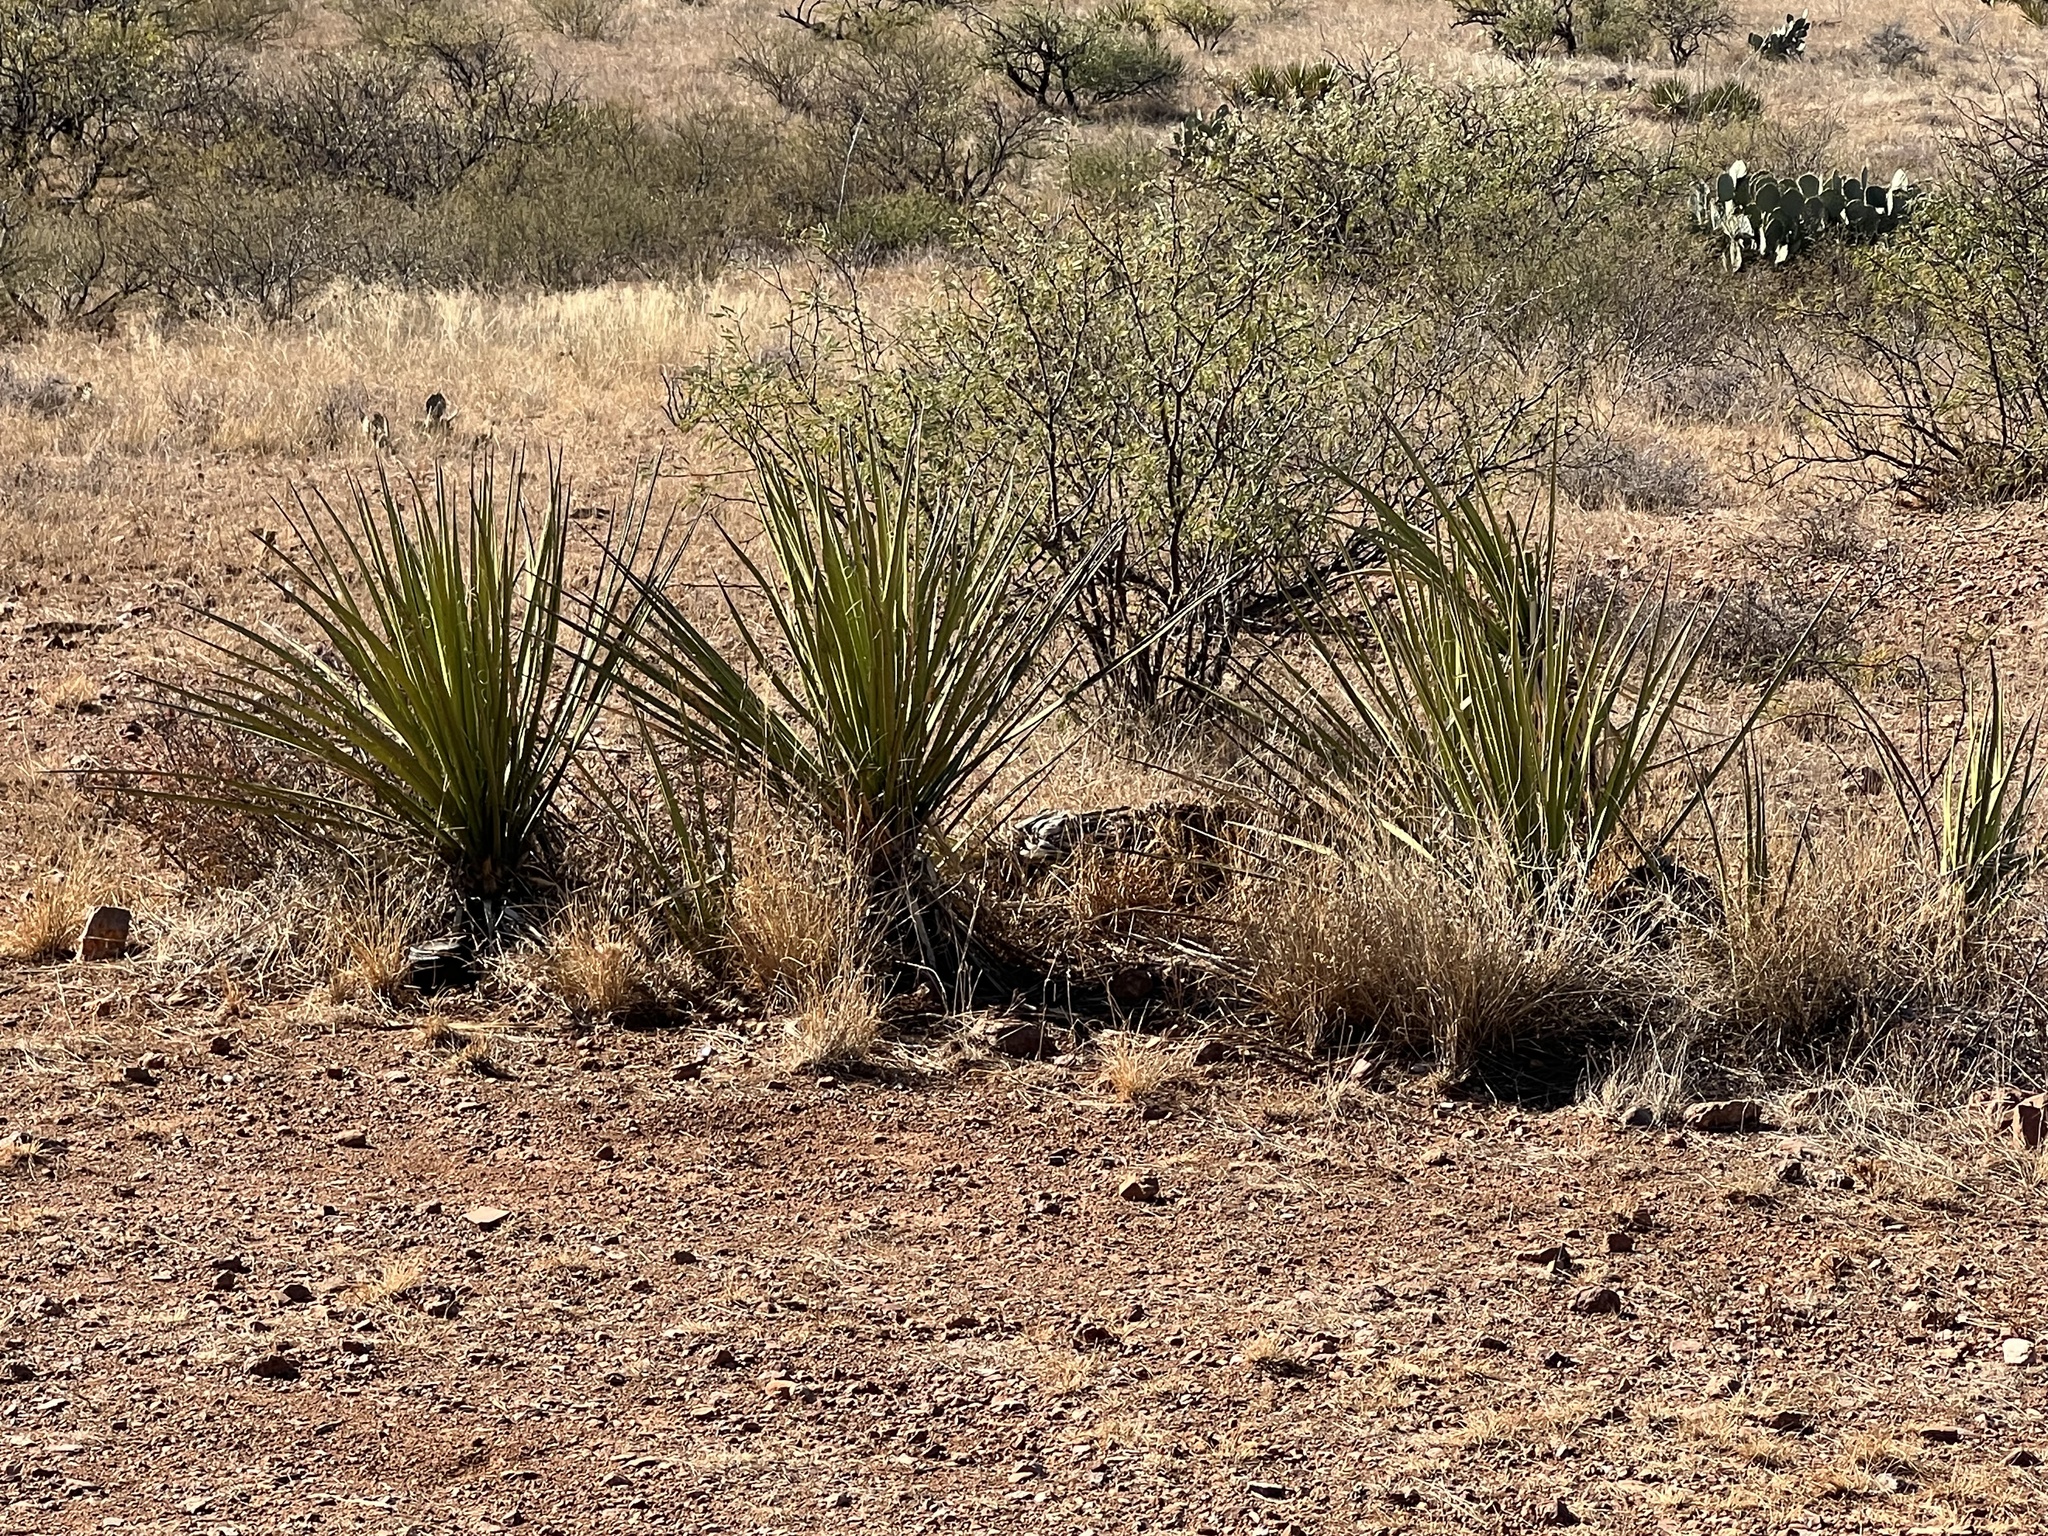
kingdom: Plantae
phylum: Tracheophyta
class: Liliopsida
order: Asparagales
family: Asparagaceae
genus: Yucca
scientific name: Yucca baccata
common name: Banana yucca
